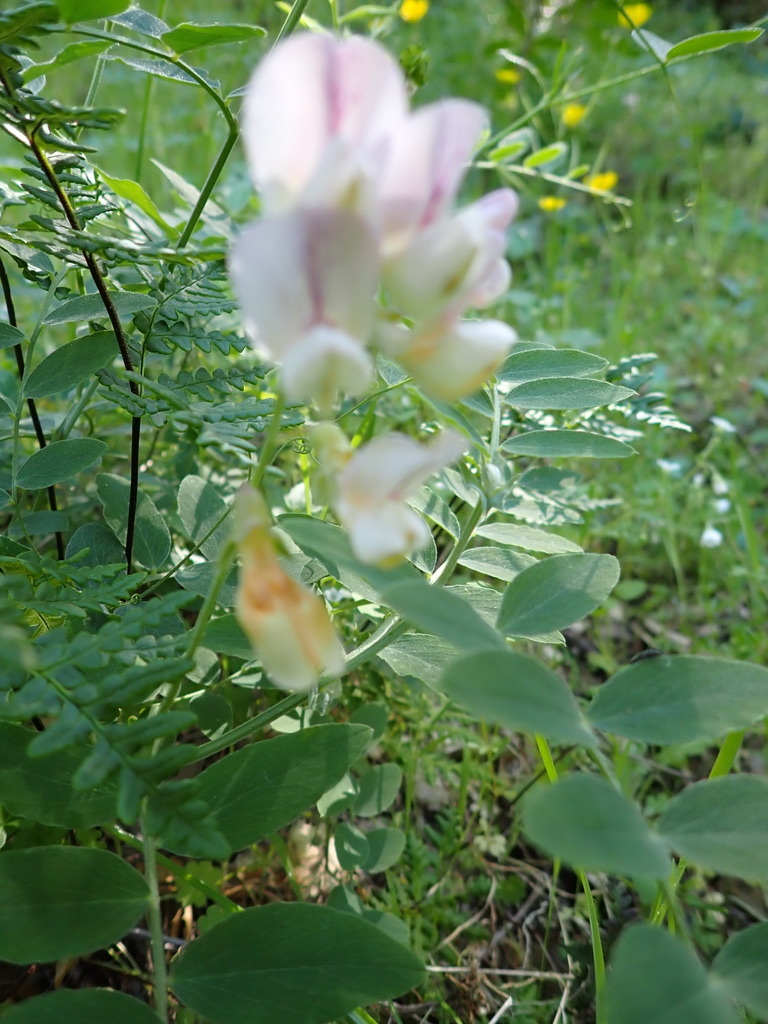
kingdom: Plantae
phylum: Tracheophyta
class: Magnoliopsida
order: Fabales
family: Fabaceae
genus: Lathyrus
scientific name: Lathyrus vestitus
